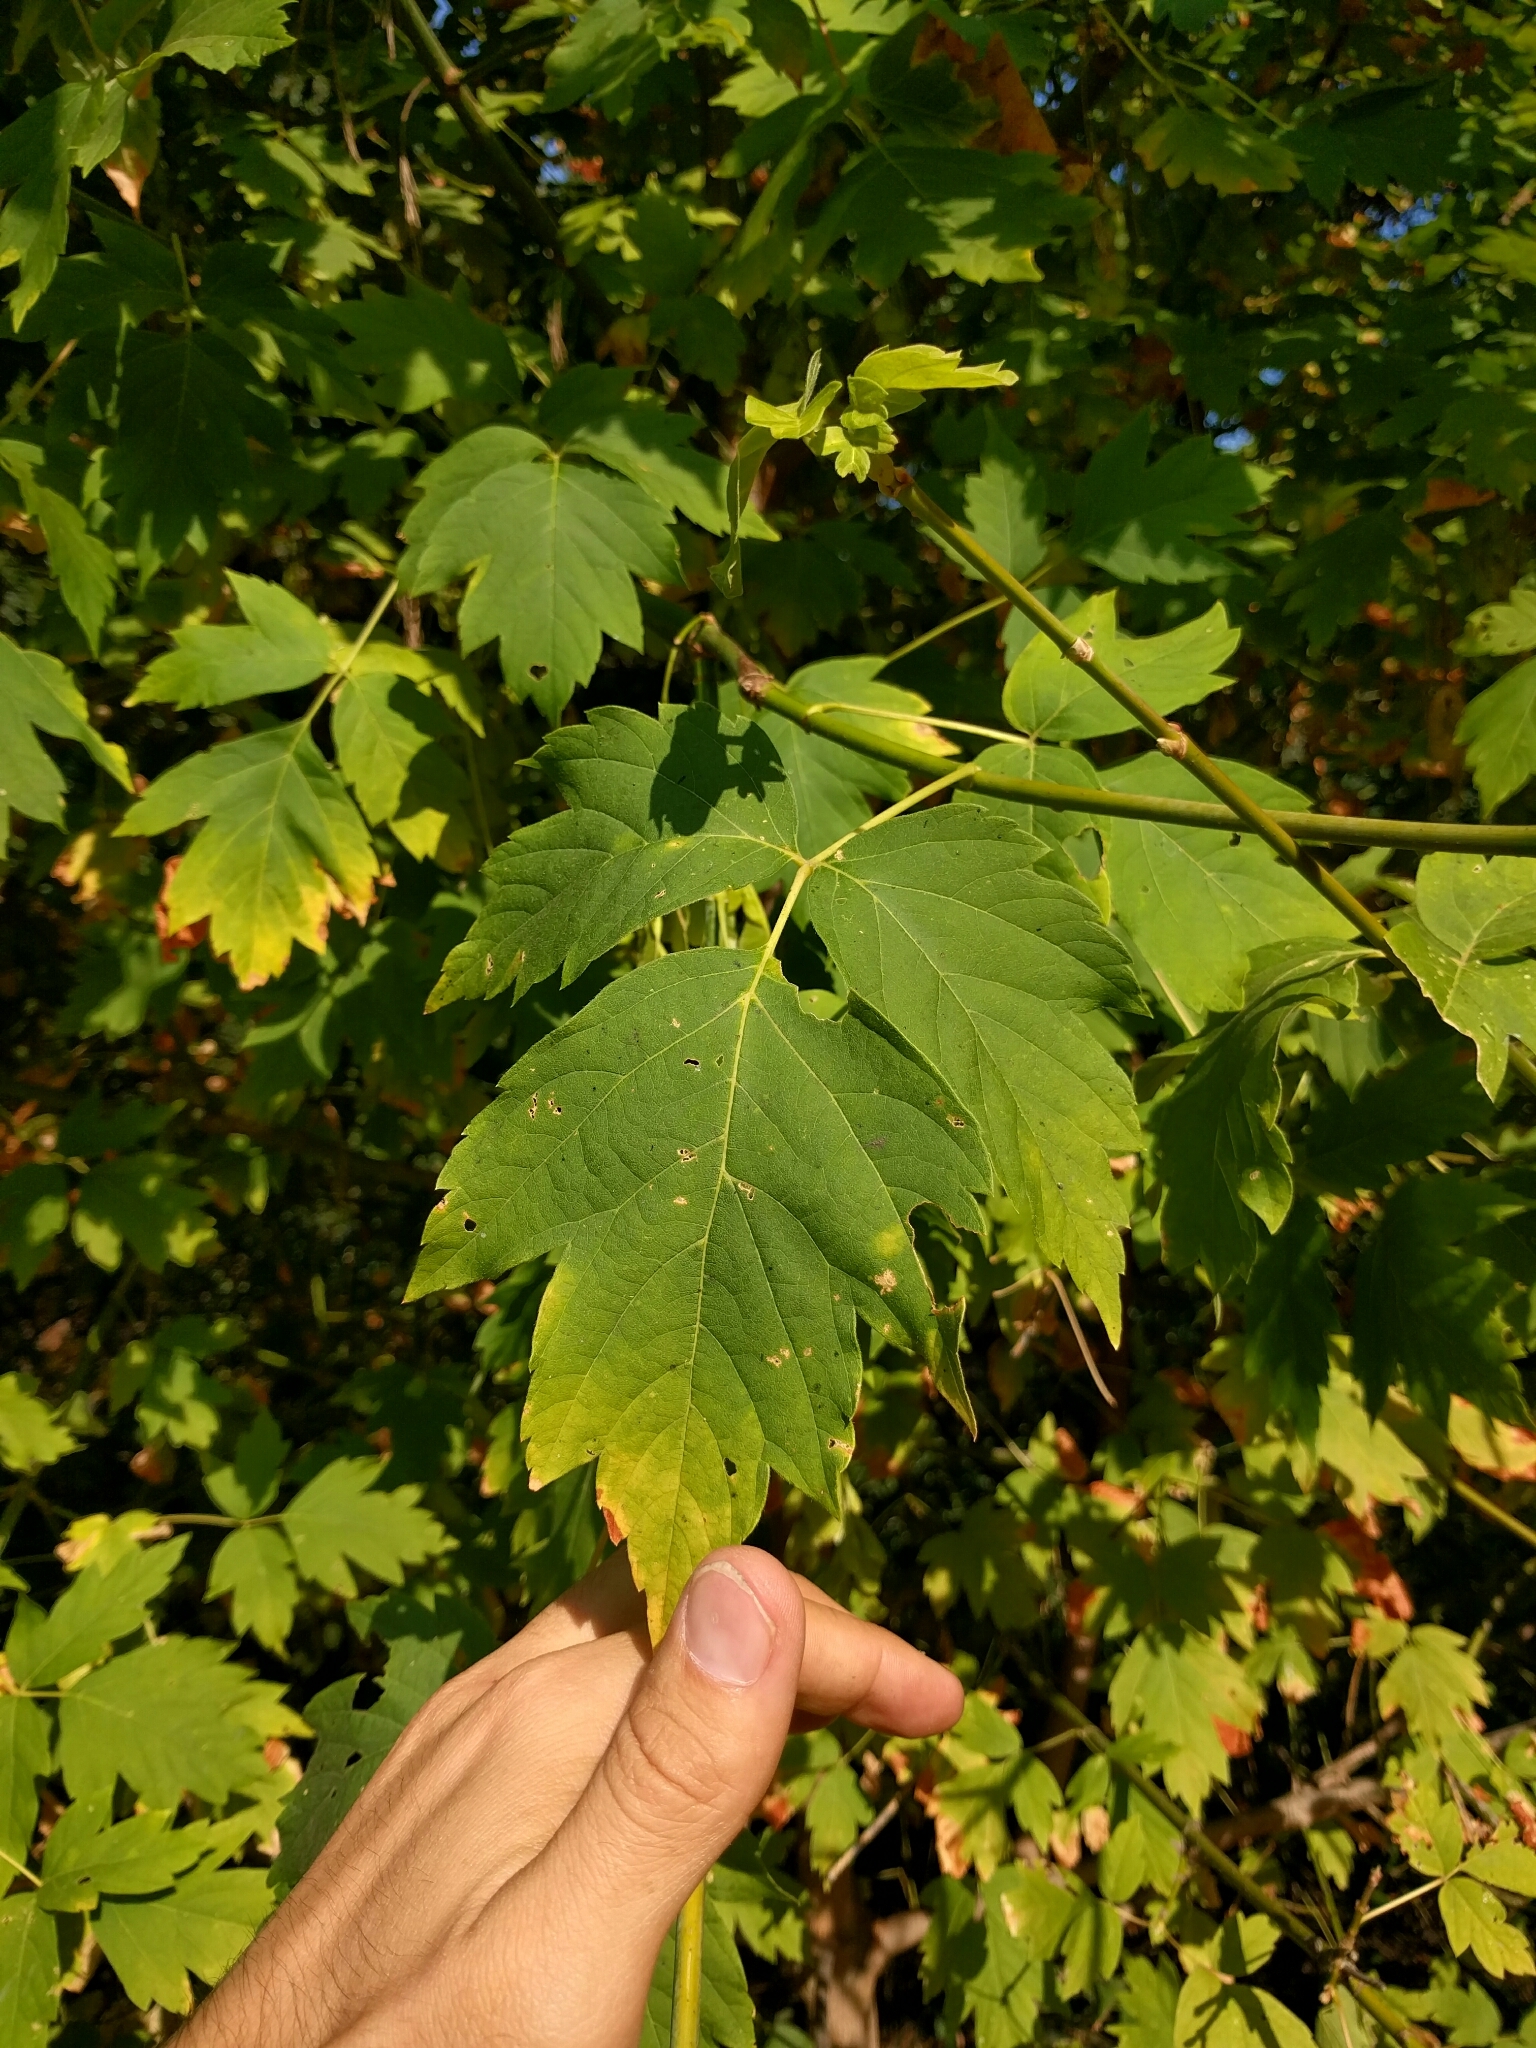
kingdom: Plantae
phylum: Tracheophyta
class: Magnoliopsida
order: Sapindales
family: Sapindaceae
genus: Acer
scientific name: Acer negundo
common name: Ashleaf maple
